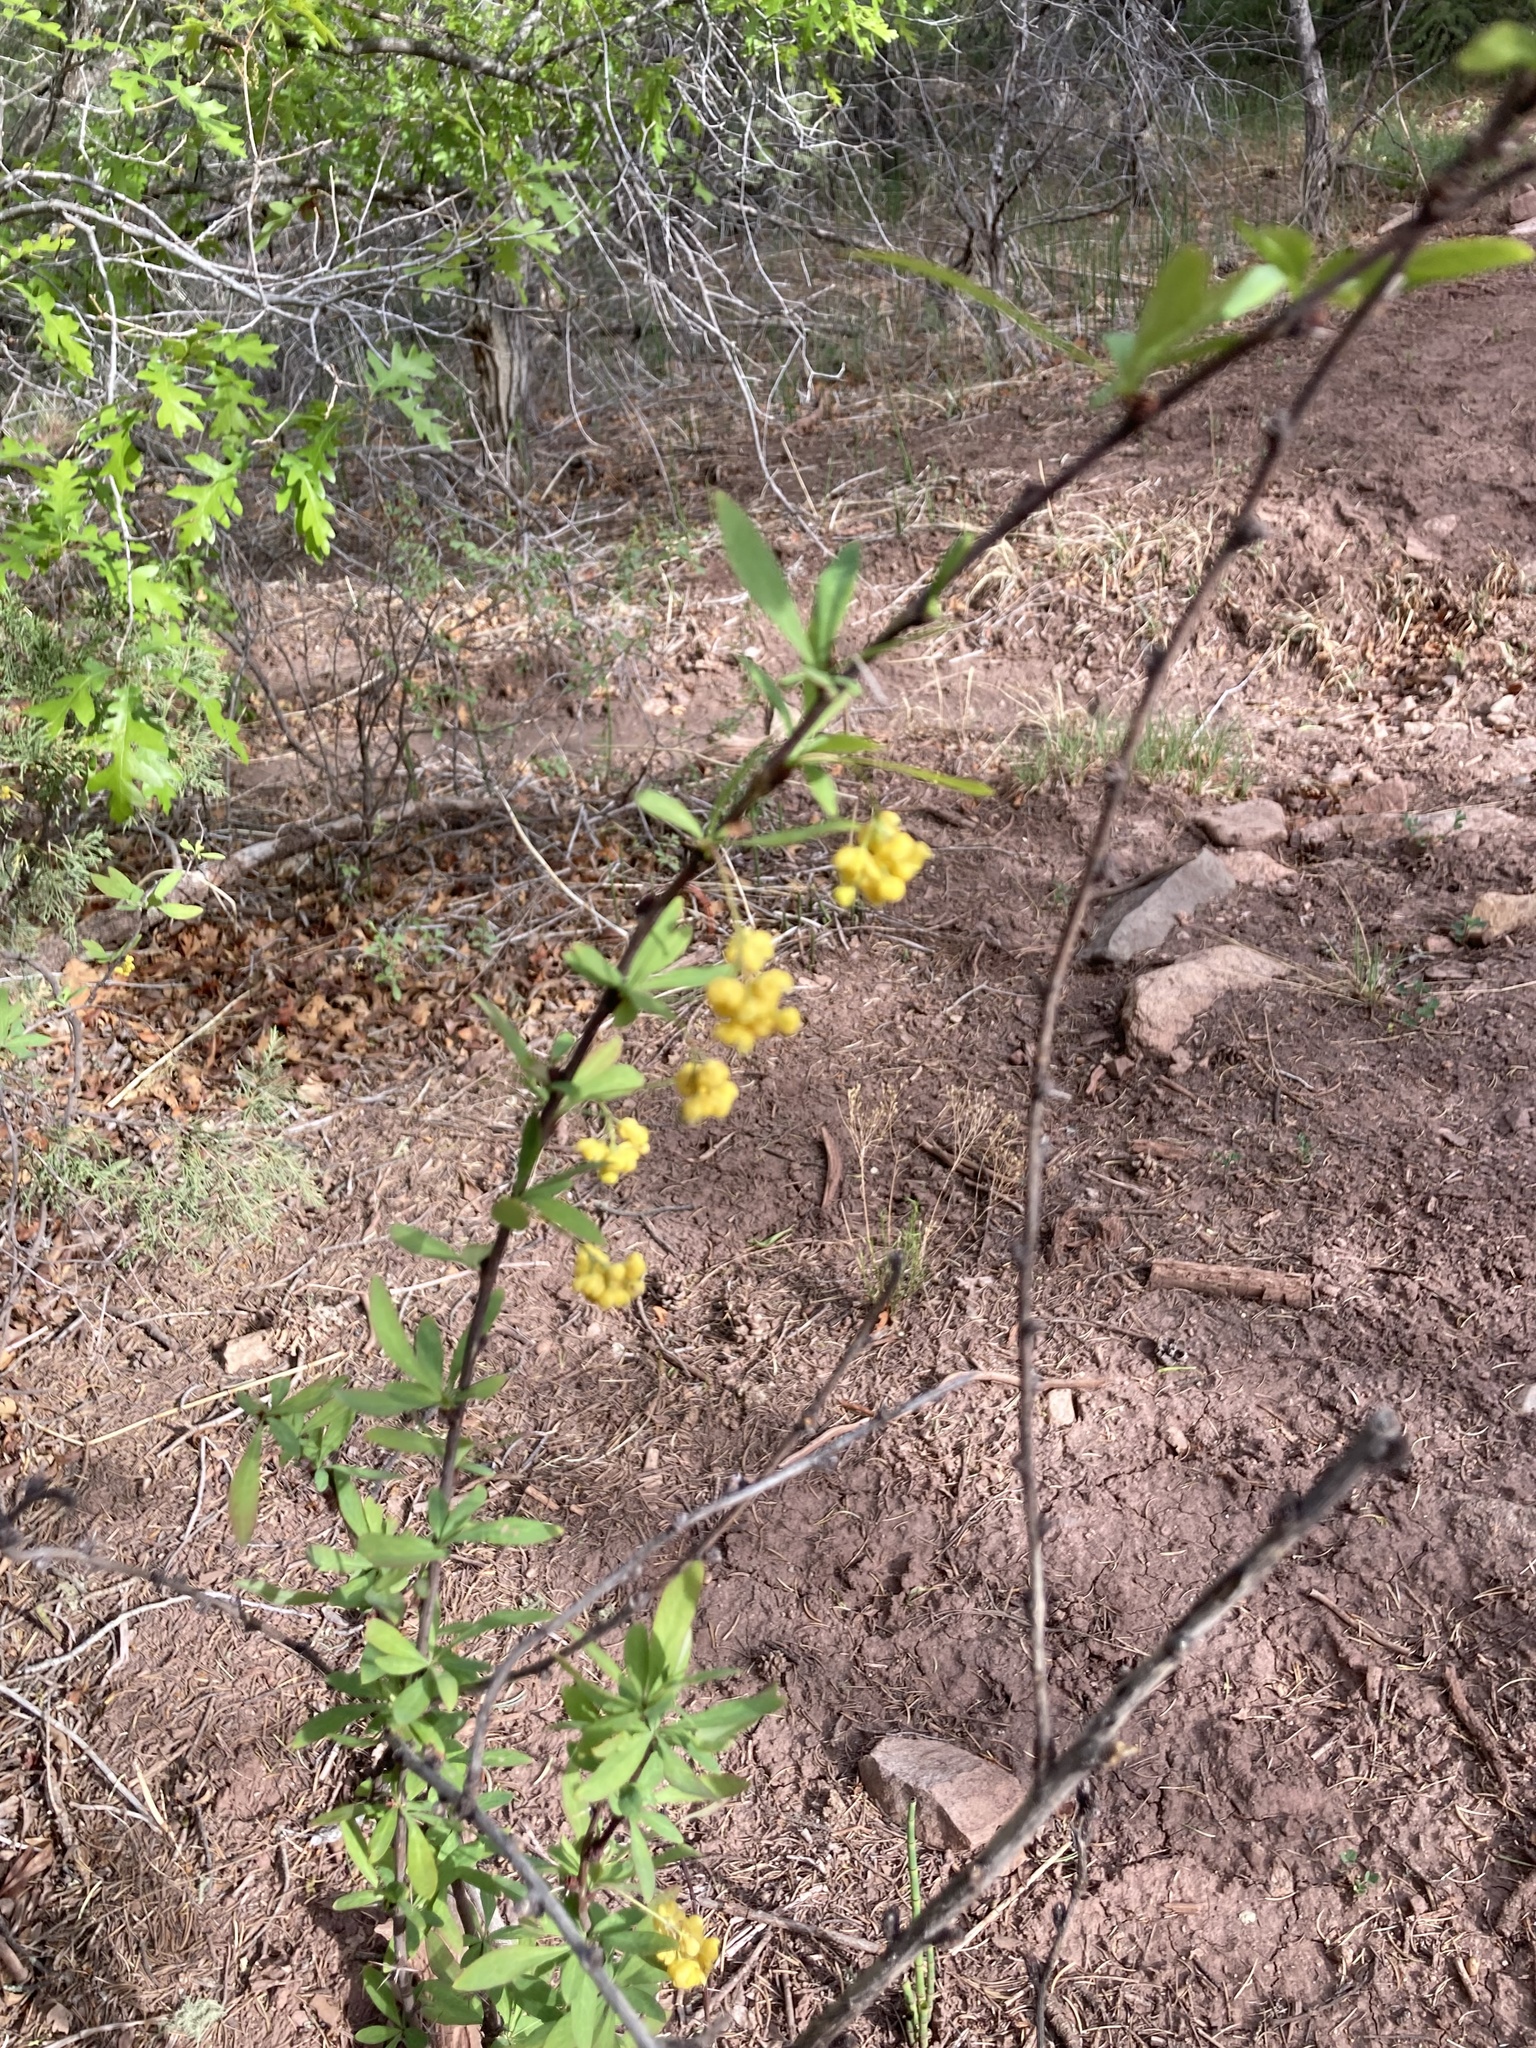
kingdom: Plantae
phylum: Tracheophyta
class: Magnoliopsida
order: Ranunculales
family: Berberidaceae
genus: Berberis
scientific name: Berberis fendleri
